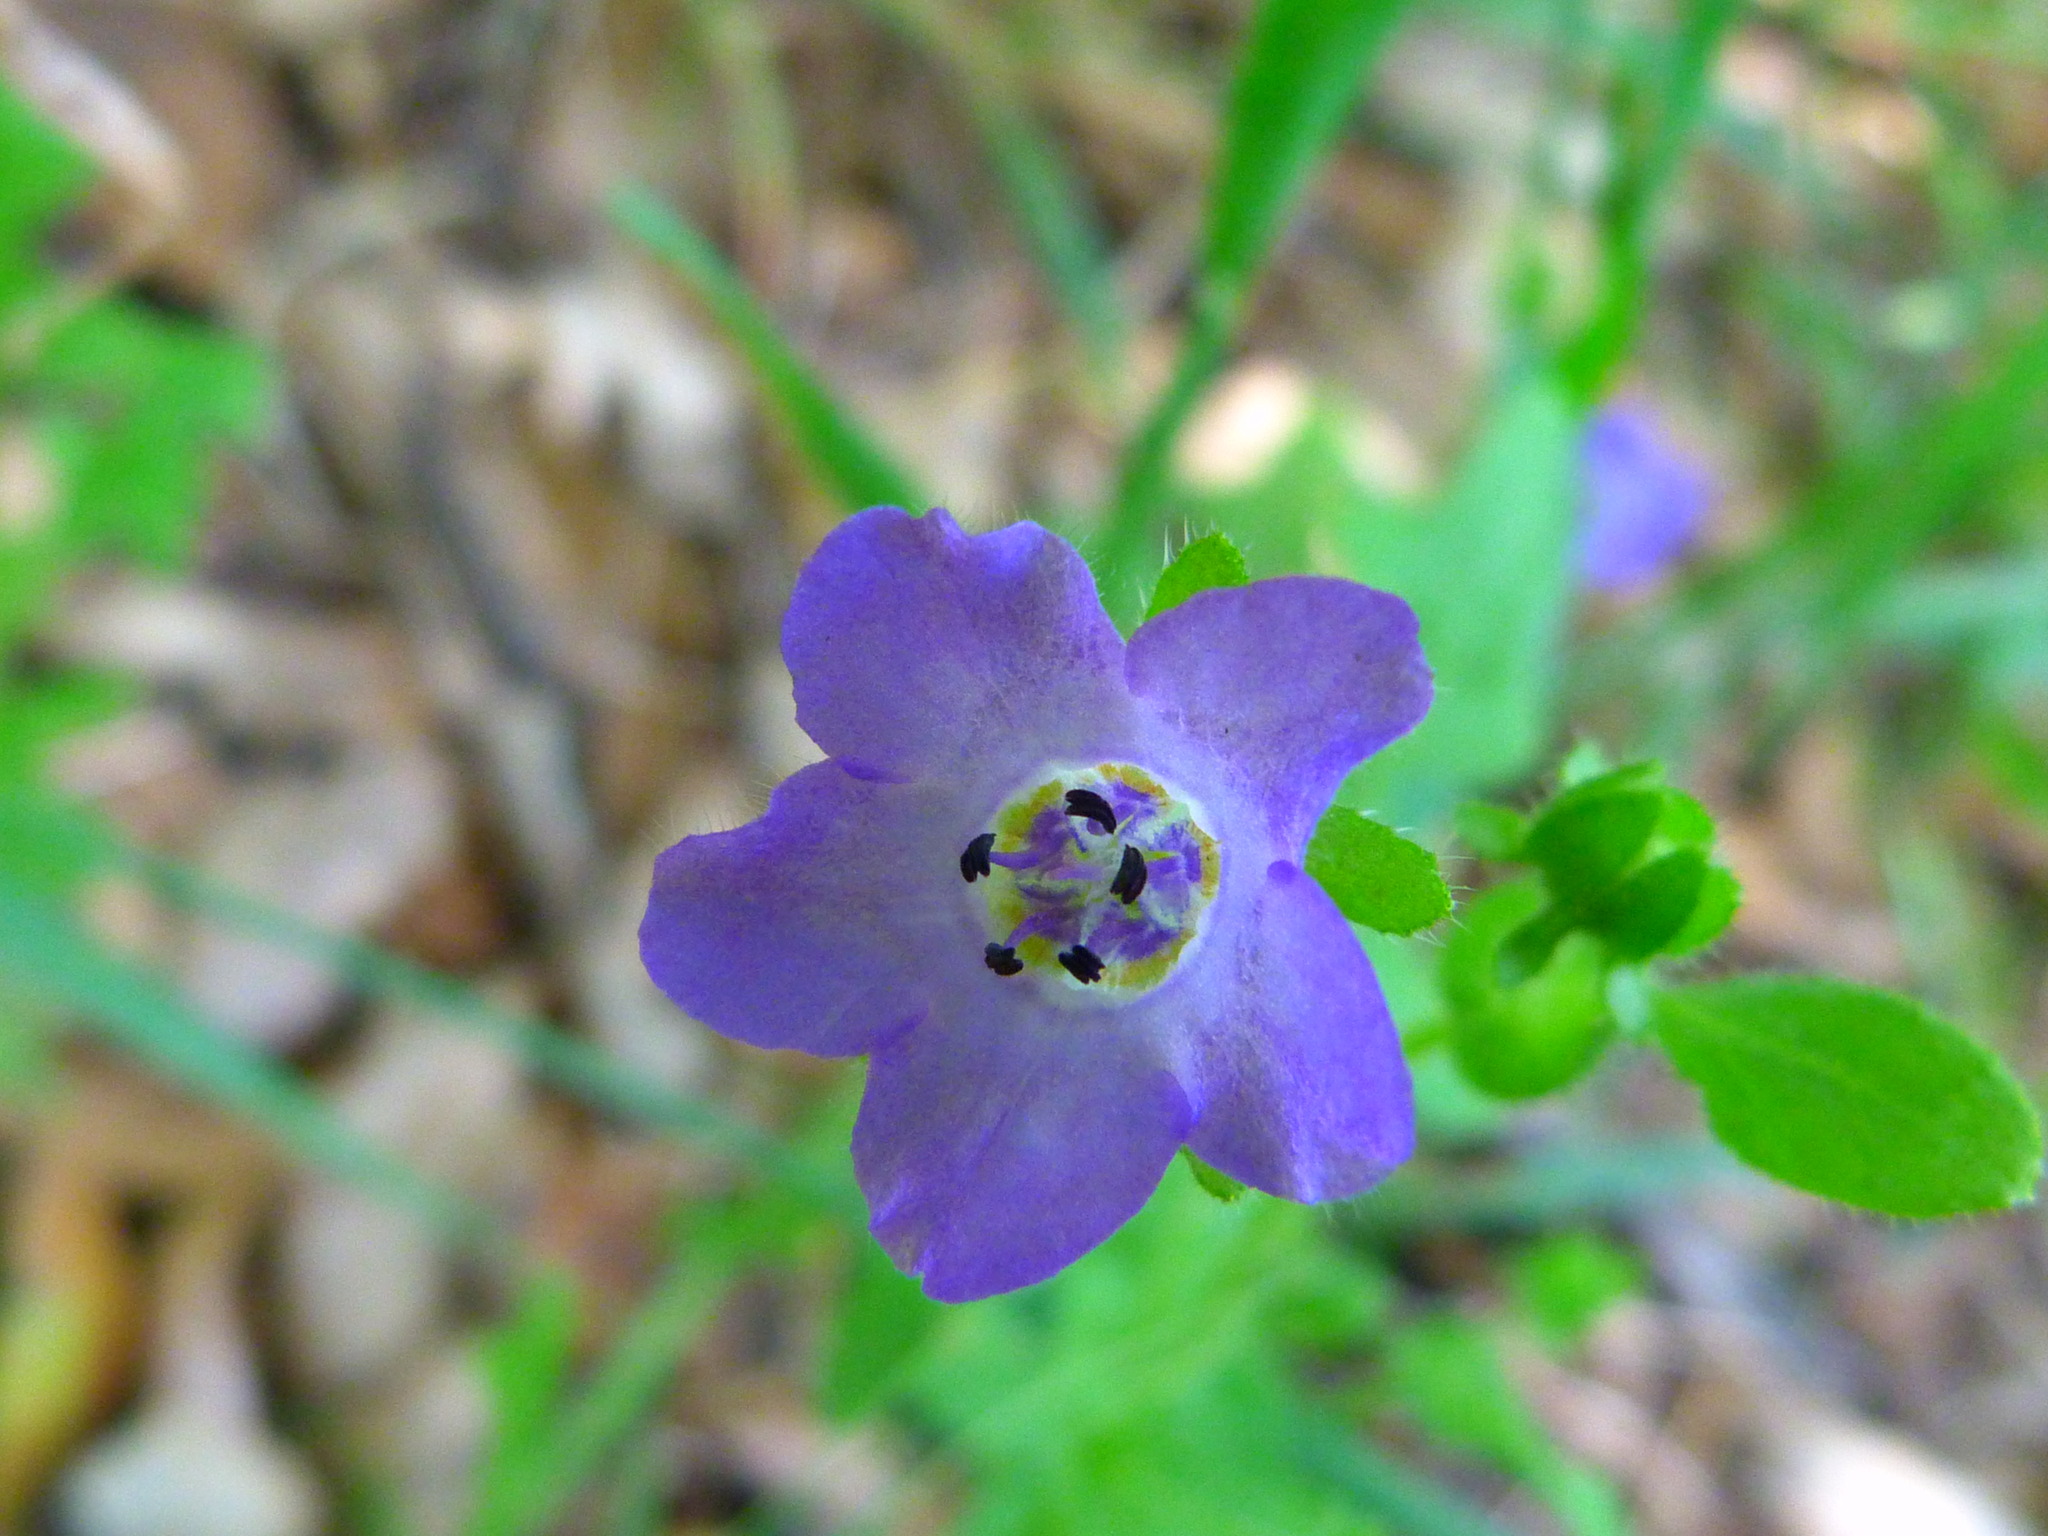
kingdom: Plantae
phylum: Tracheophyta
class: Magnoliopsida
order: Boraginales
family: Hydrophyllaceae
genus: Pholistoma
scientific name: Pholistoma auritum
